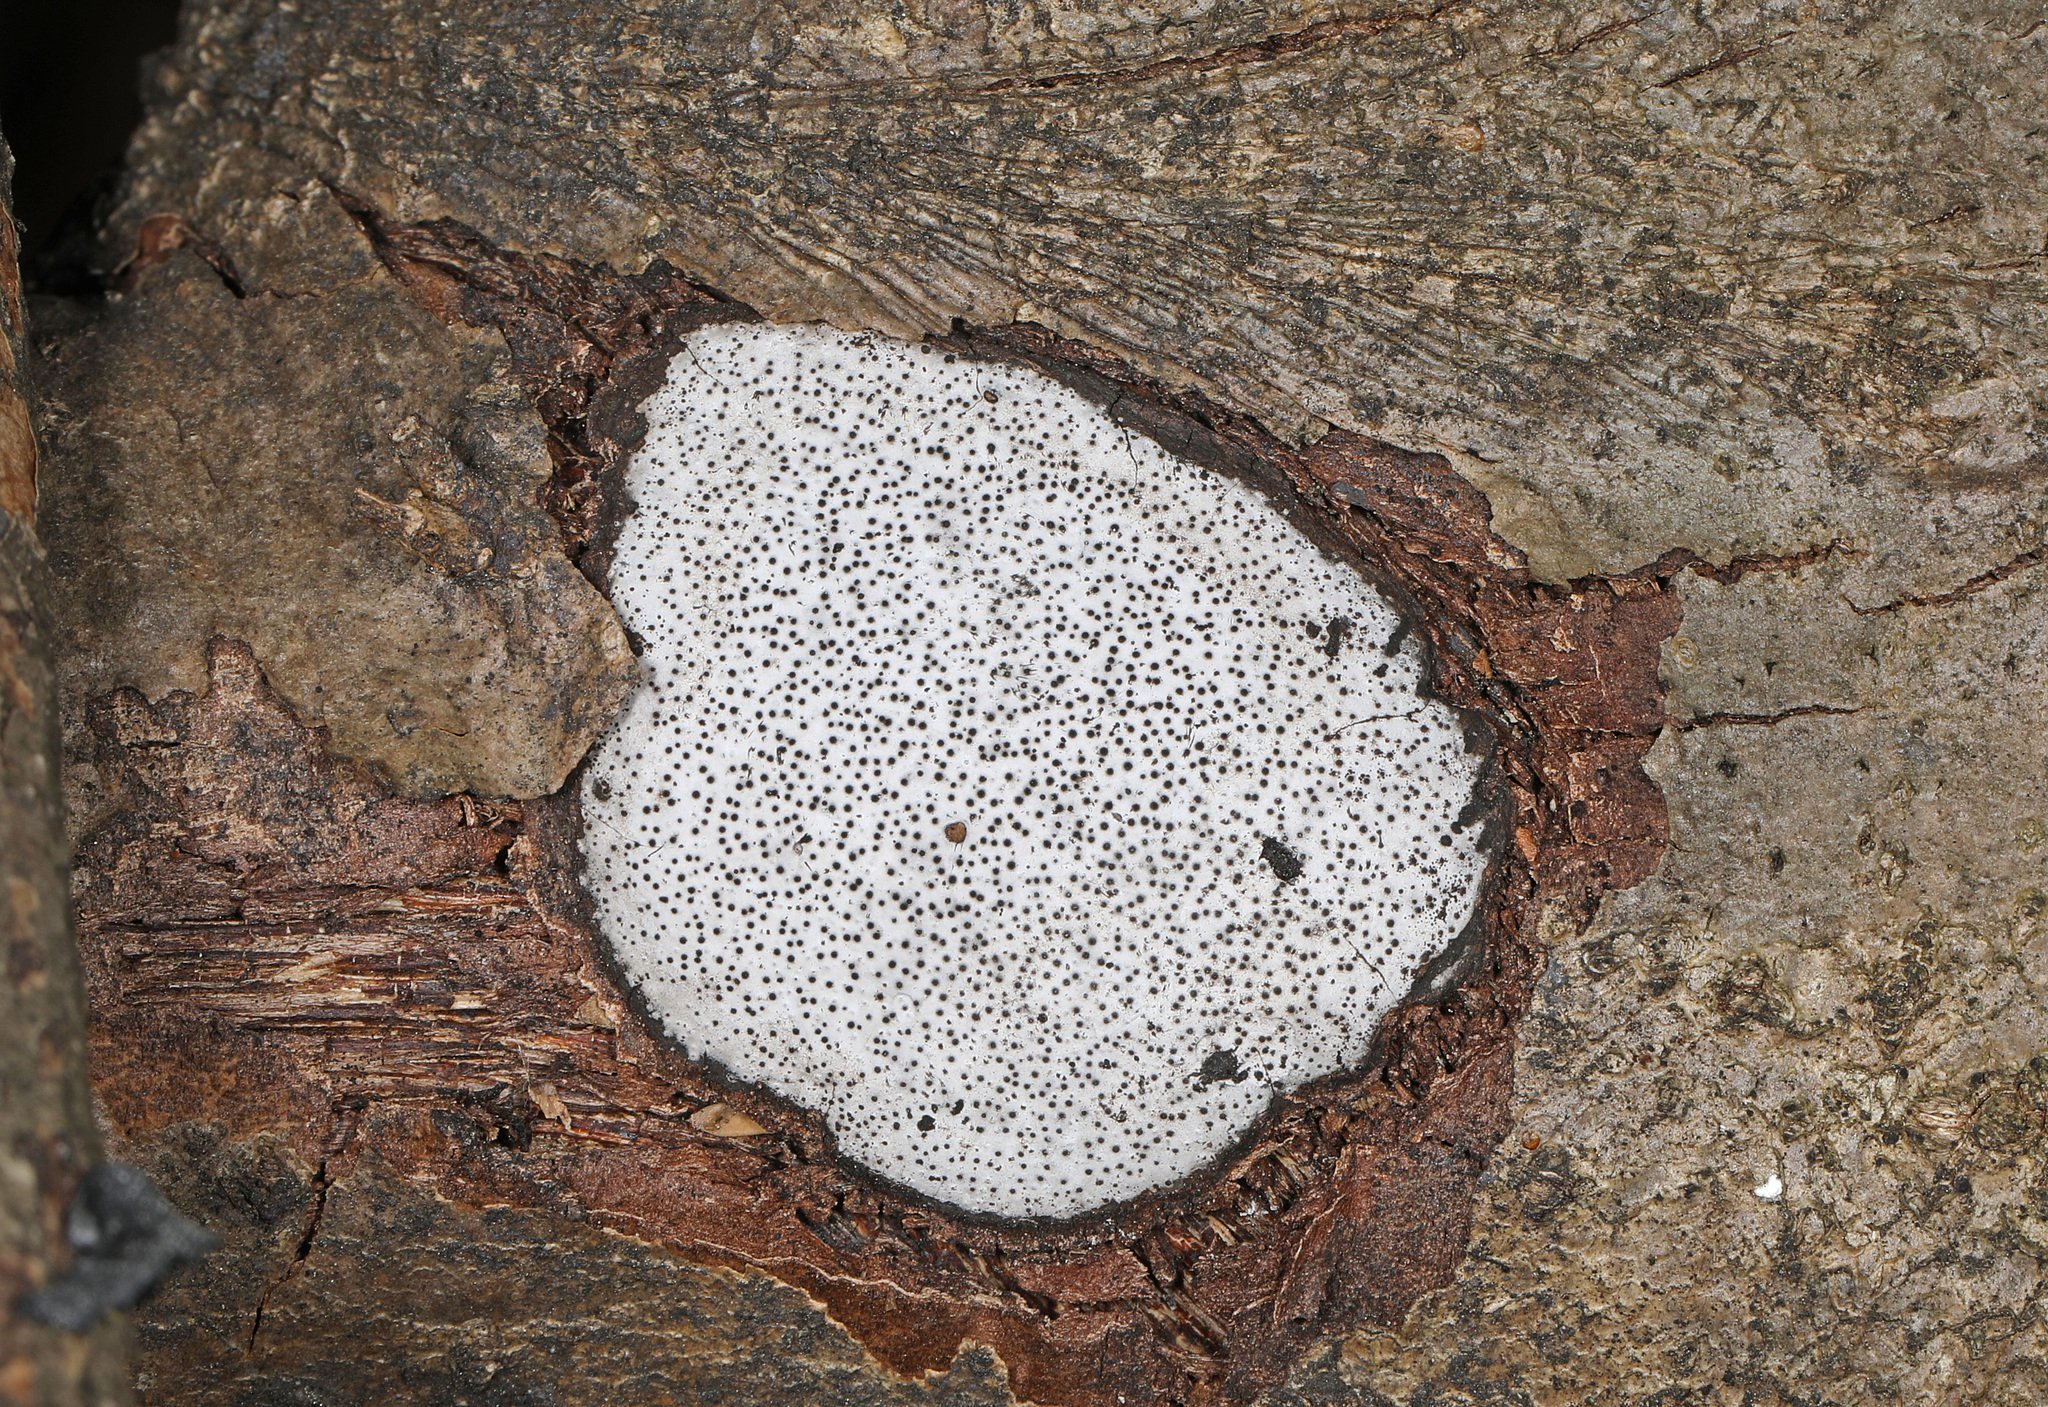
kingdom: Fungi
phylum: Ascomycota
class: Sordariomycetes
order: Xylariales
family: Graphostromataceae
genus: Biscogniauxia
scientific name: Biscogniauxia atropunctata
